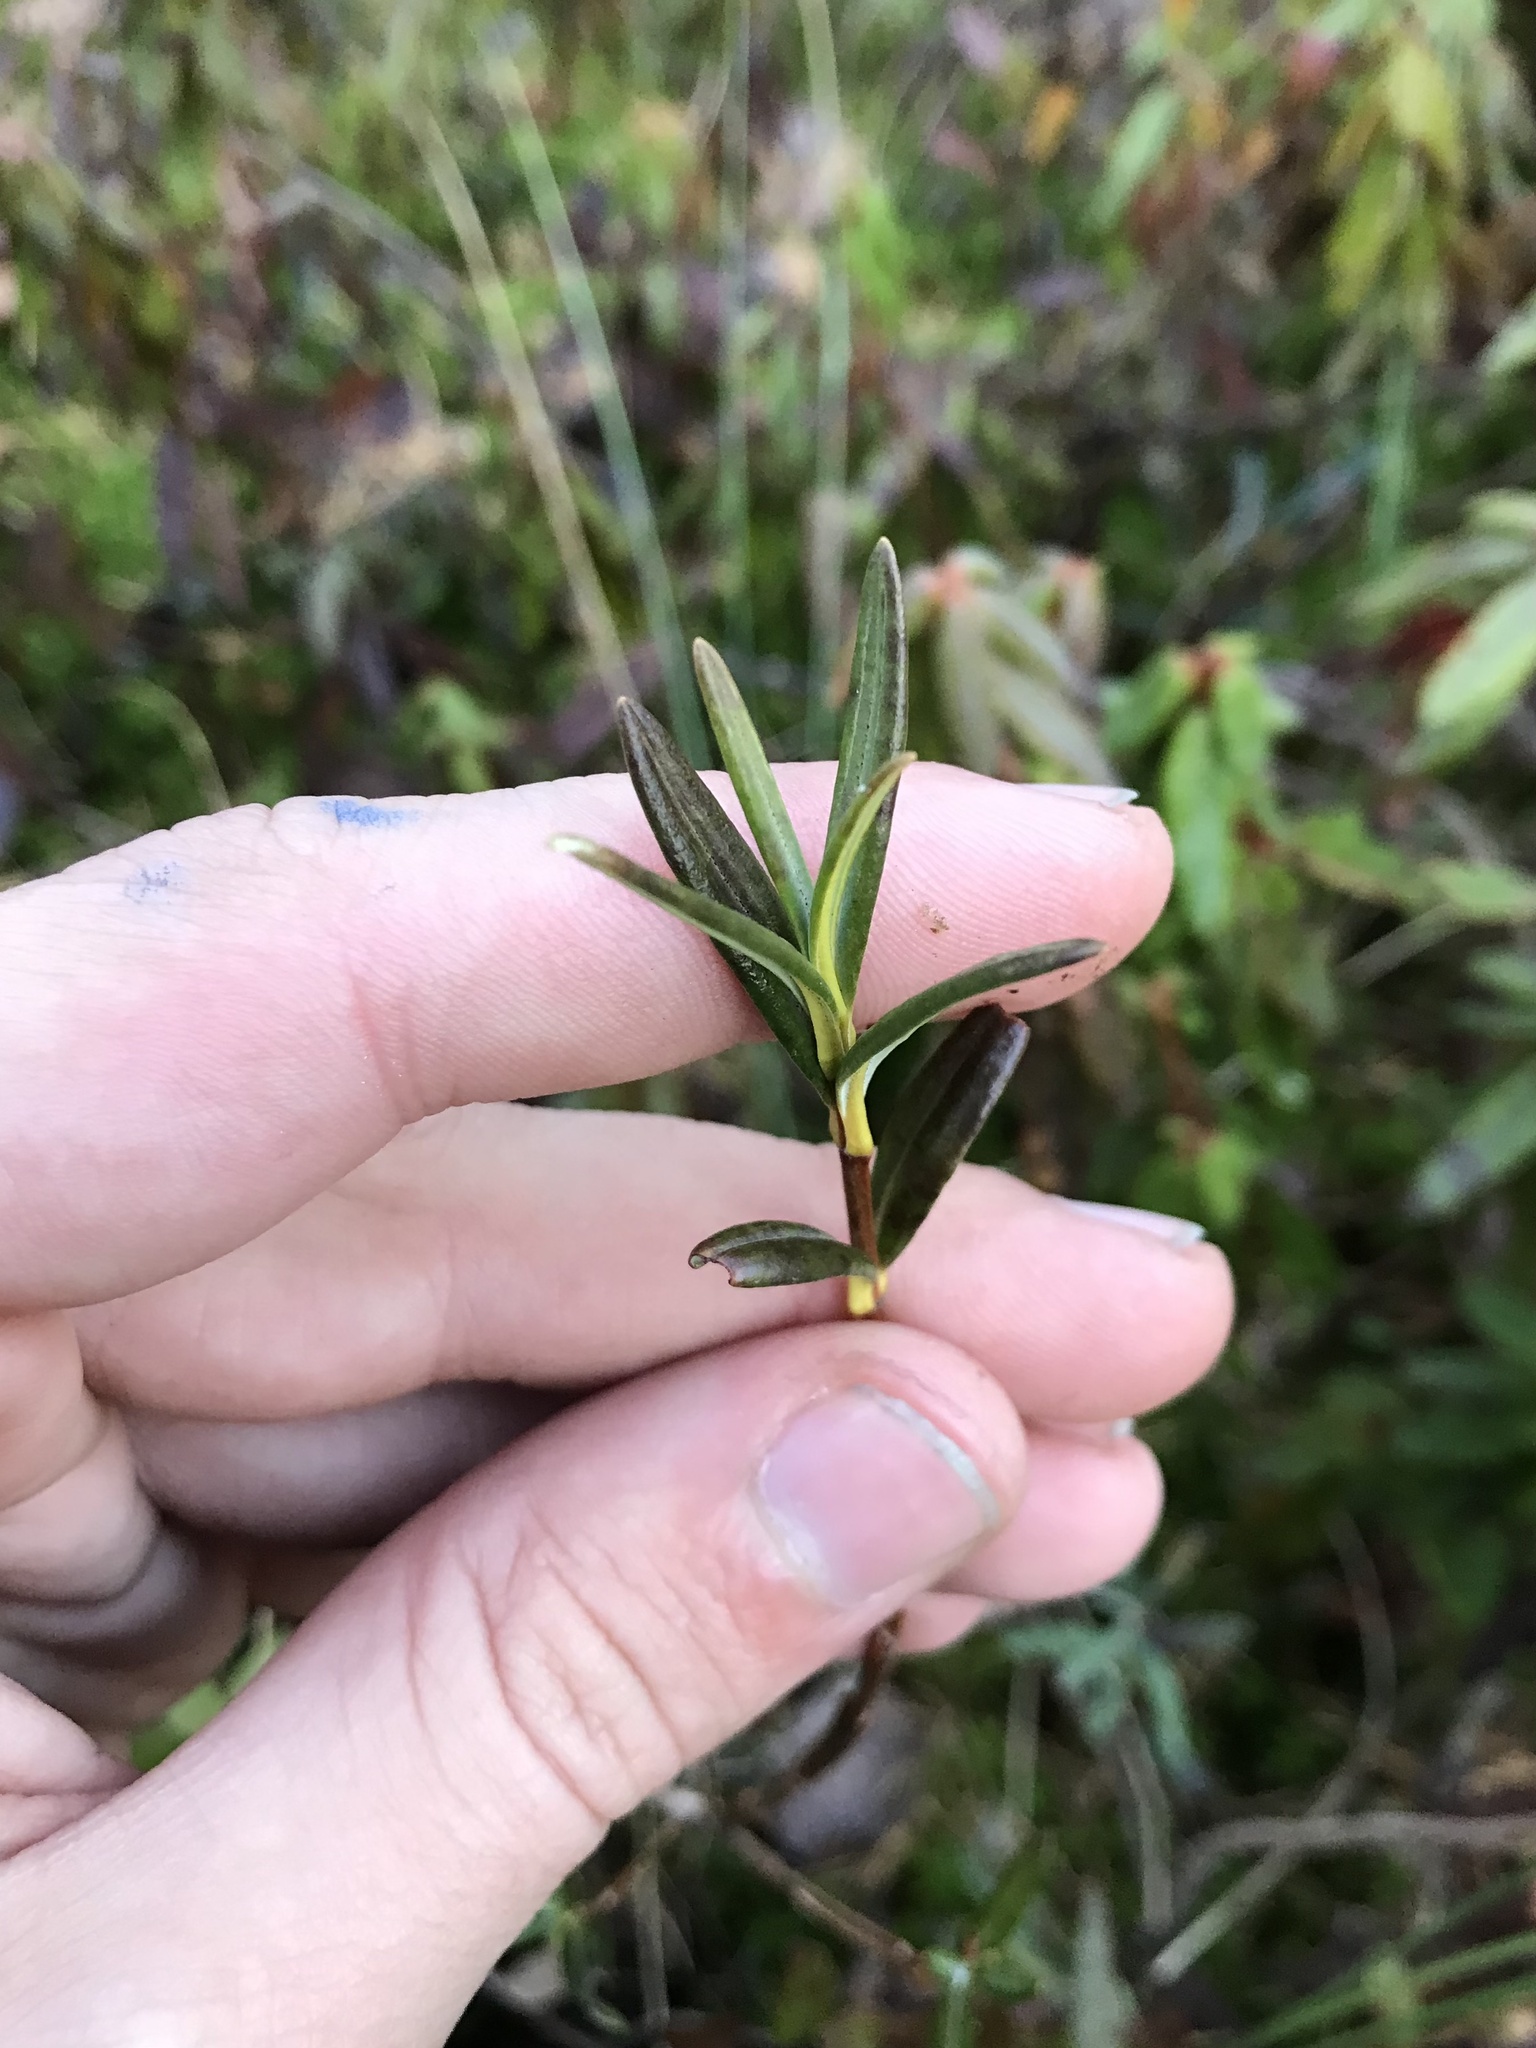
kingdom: Plantae
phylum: Tracheophyta
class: Magnoliopsida
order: Ericales
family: Ericaceae
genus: Kalmia
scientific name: Kalmia polifolia
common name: Bog-laurel
